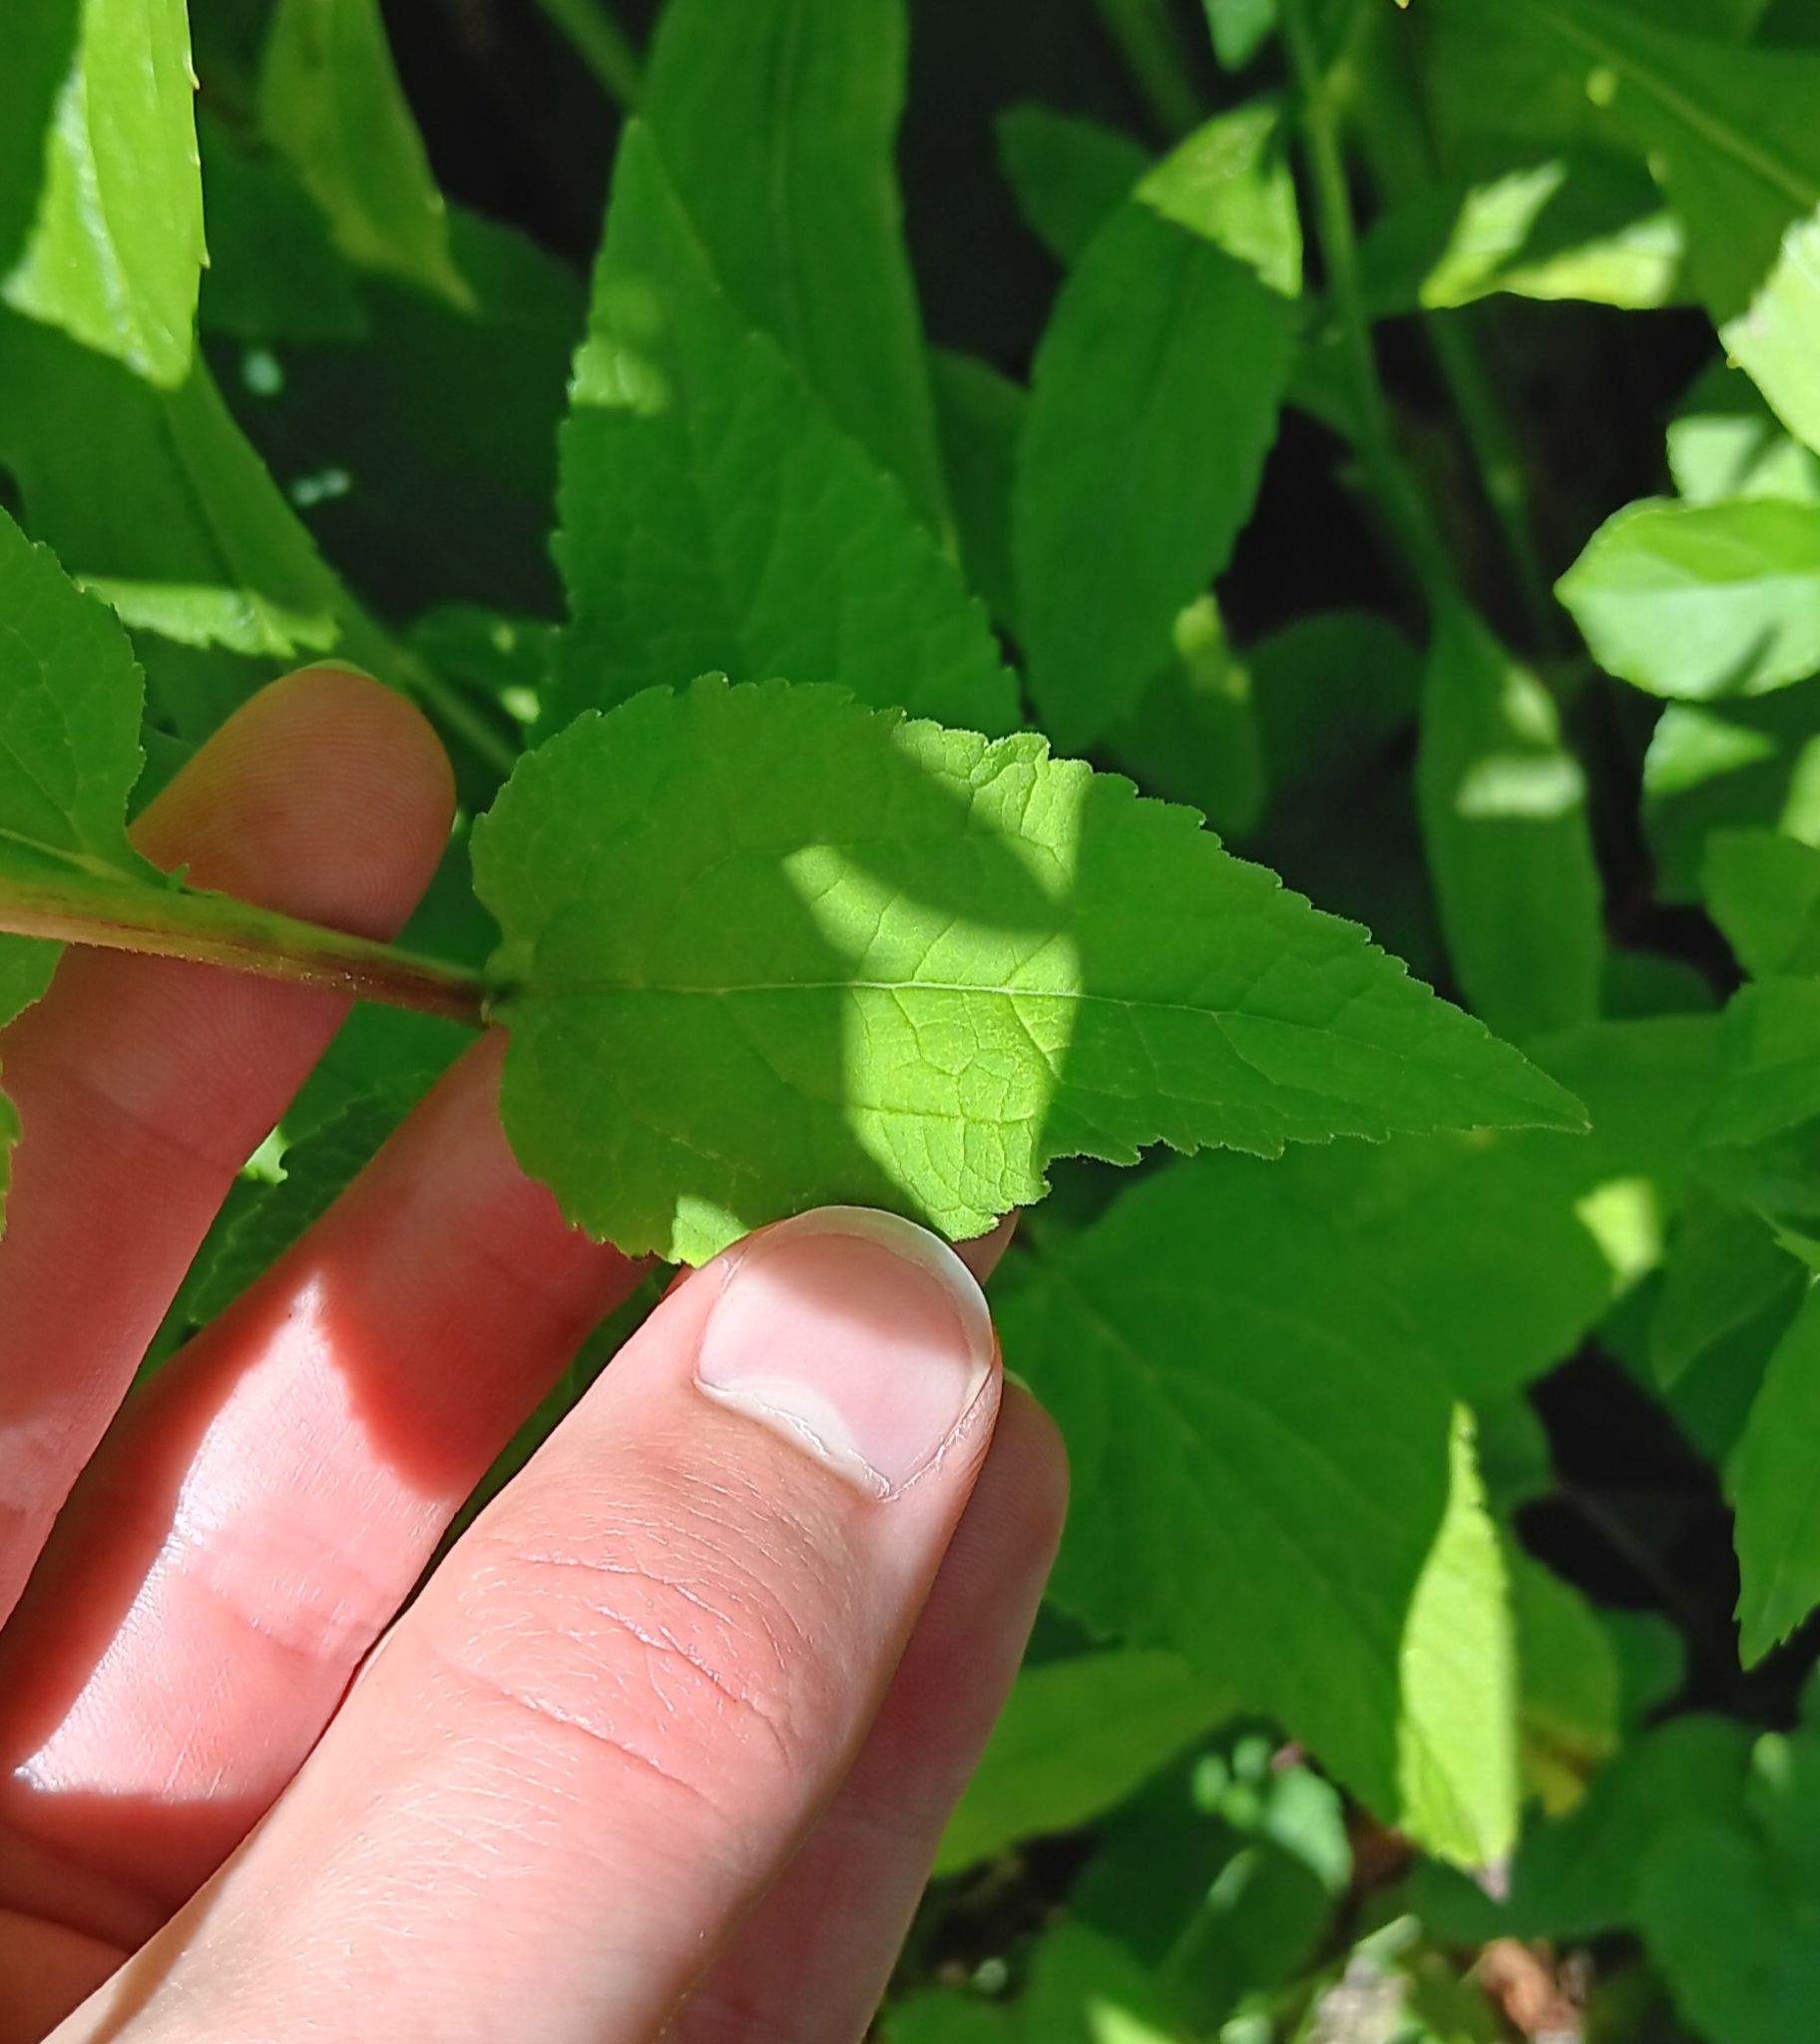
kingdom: Plantae
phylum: Tracheophyta
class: Magnoliopsida
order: Asterales
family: Campanulaceae
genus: Campanula
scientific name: Campanula rapunculoides
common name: Creeping bellflower
